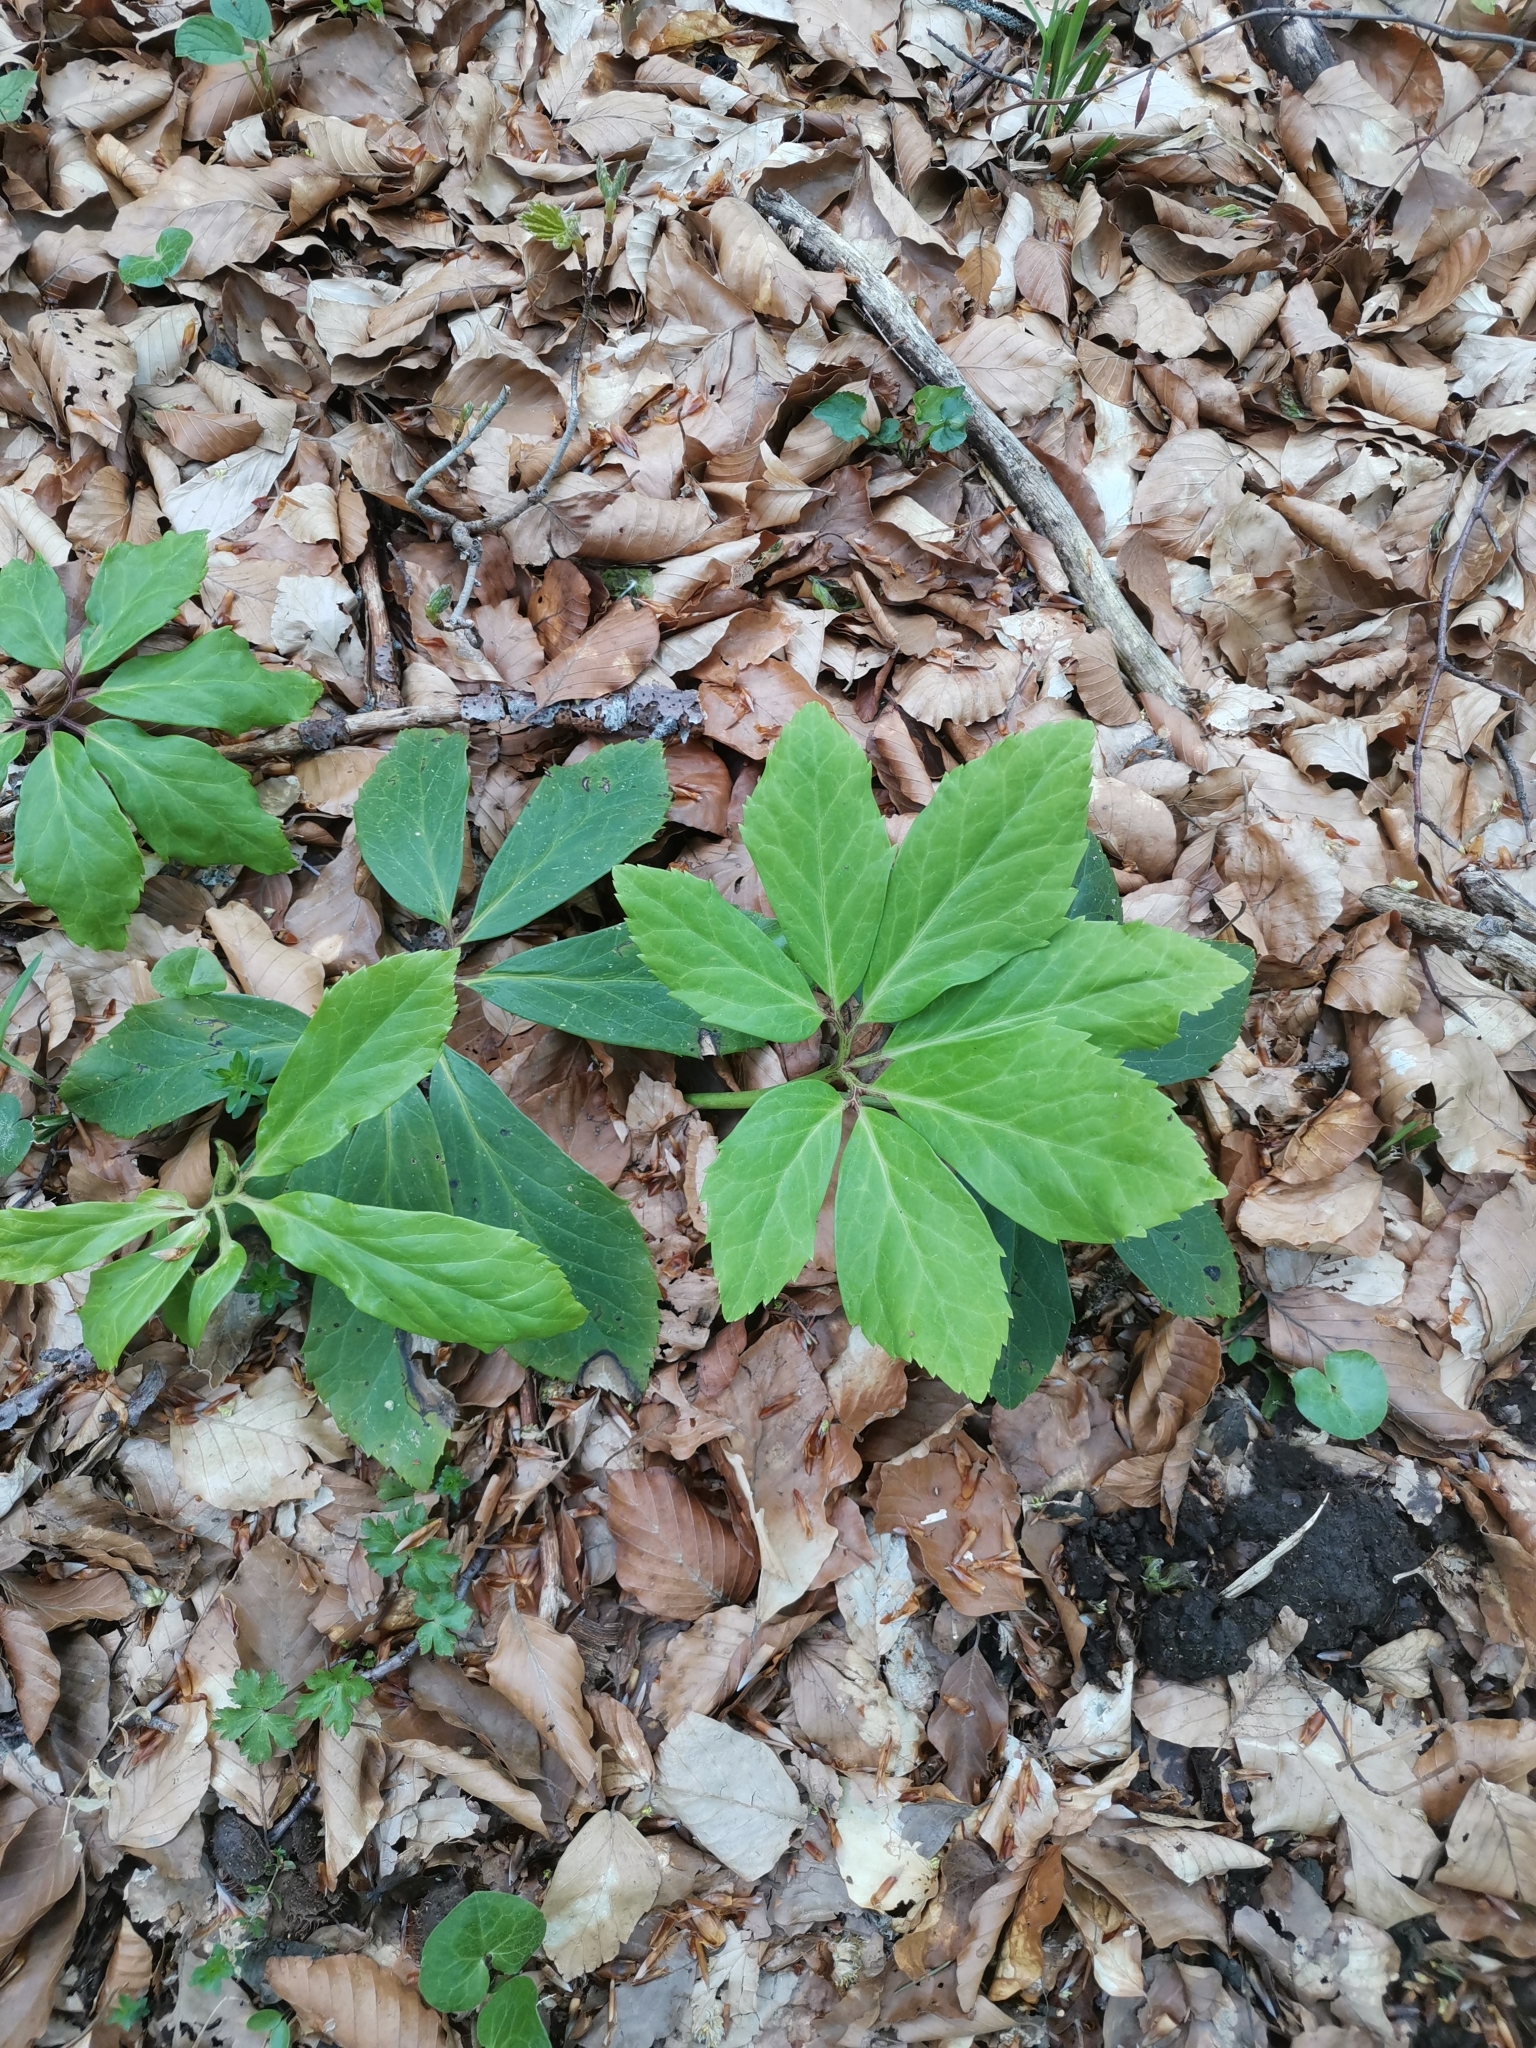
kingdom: Plantae
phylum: Tracheophyta
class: Magnoliopsida
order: Ranunculales
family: Ranunculaceae
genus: Helleborus
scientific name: Helleborus niger
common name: Black hellebore
